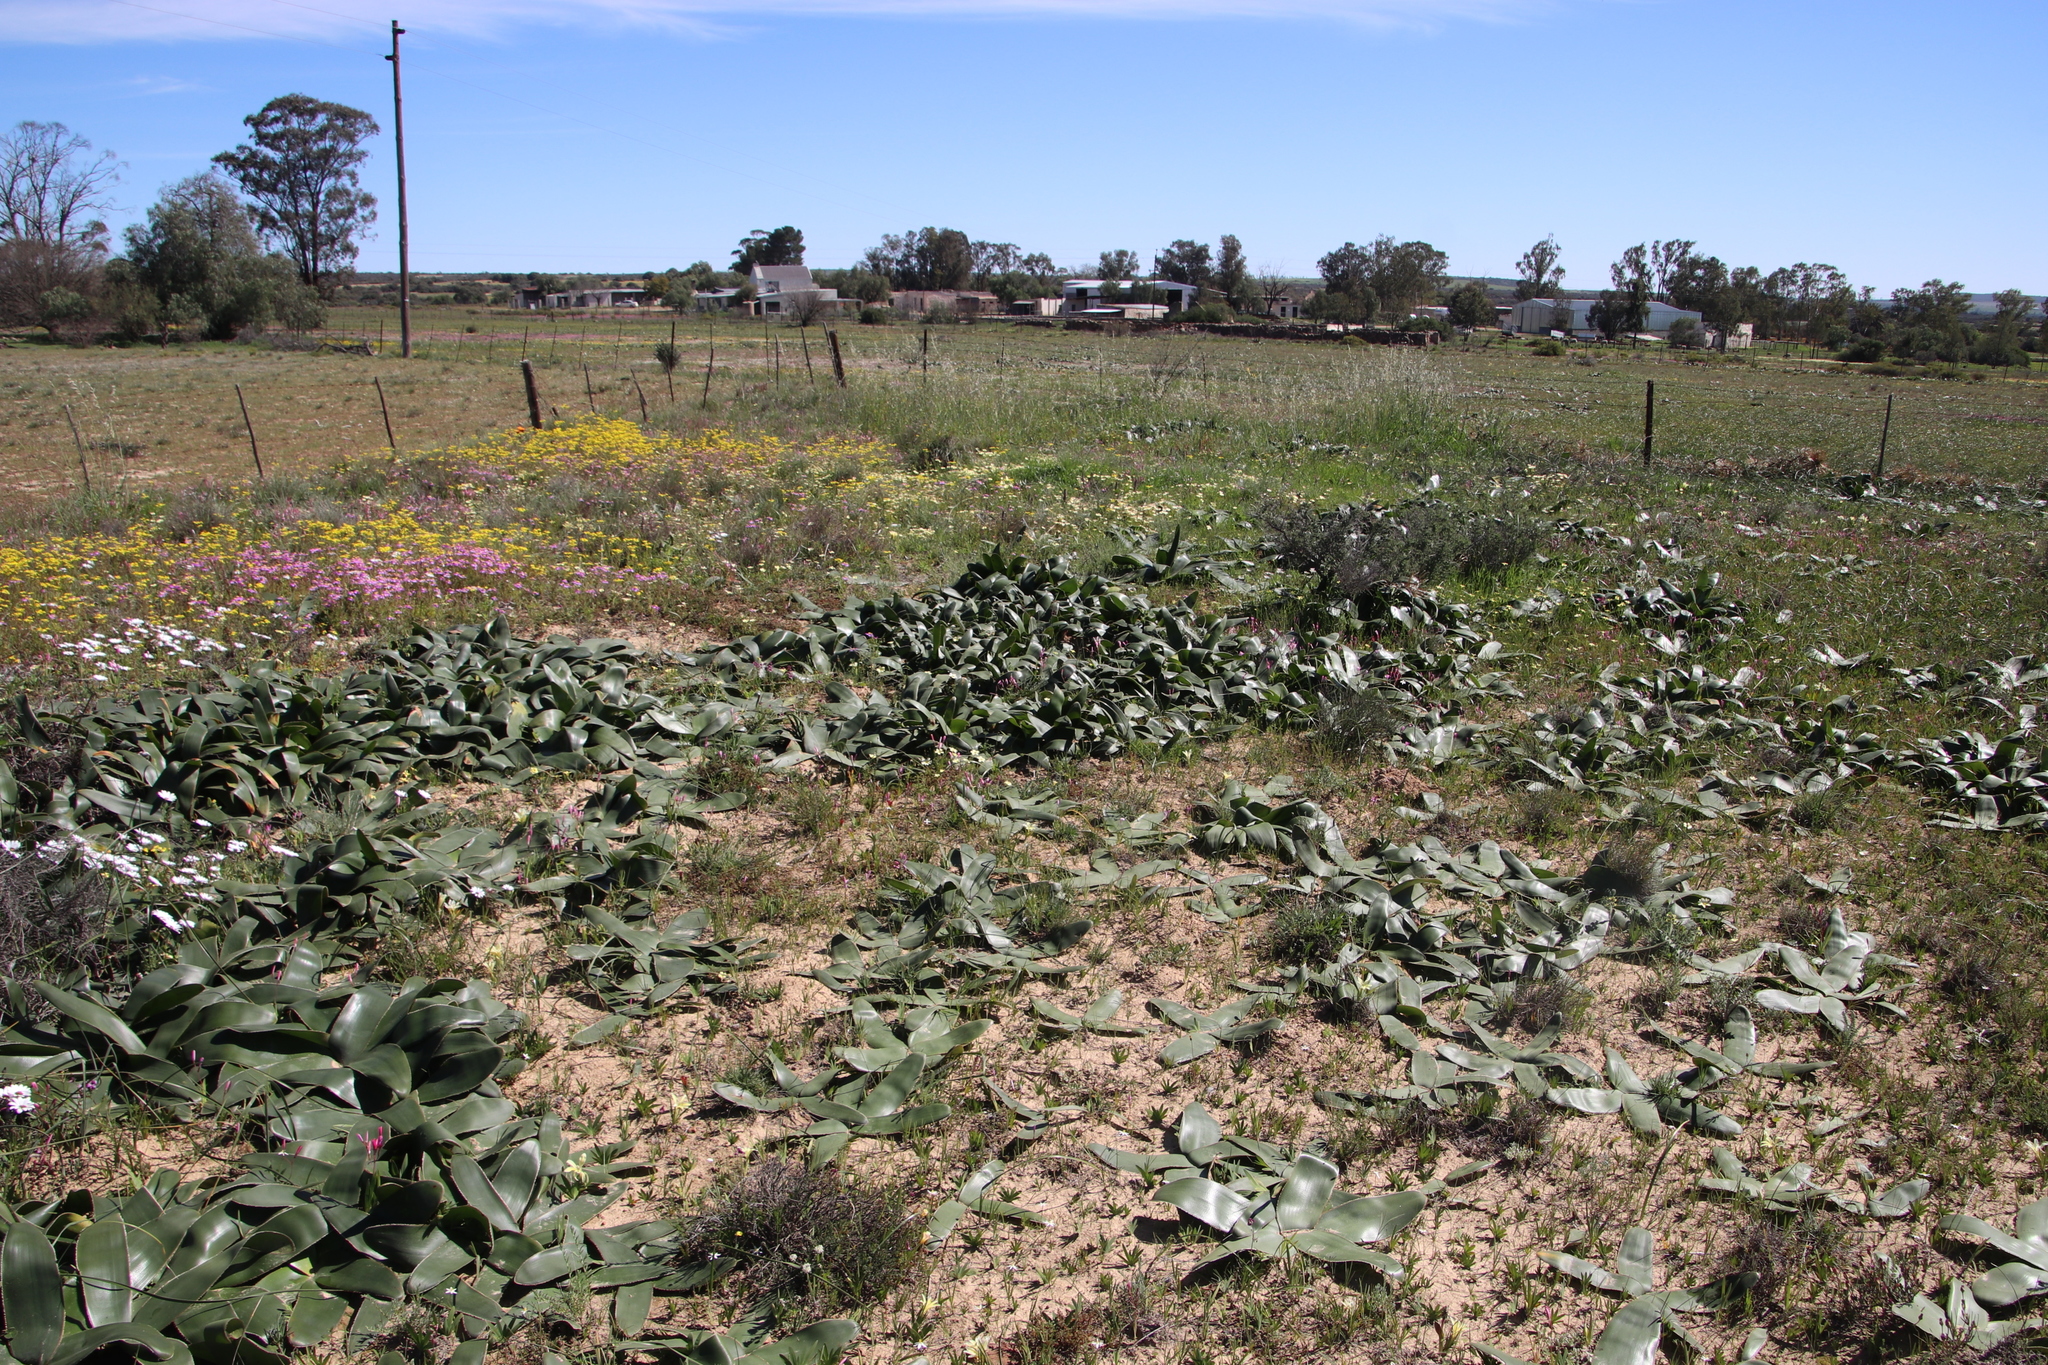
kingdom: Plantae
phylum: Tracheophyta
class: Liliopsida
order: Asparagales
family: Amaryllidaceae
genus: Crossyne
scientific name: Crossyne flava
